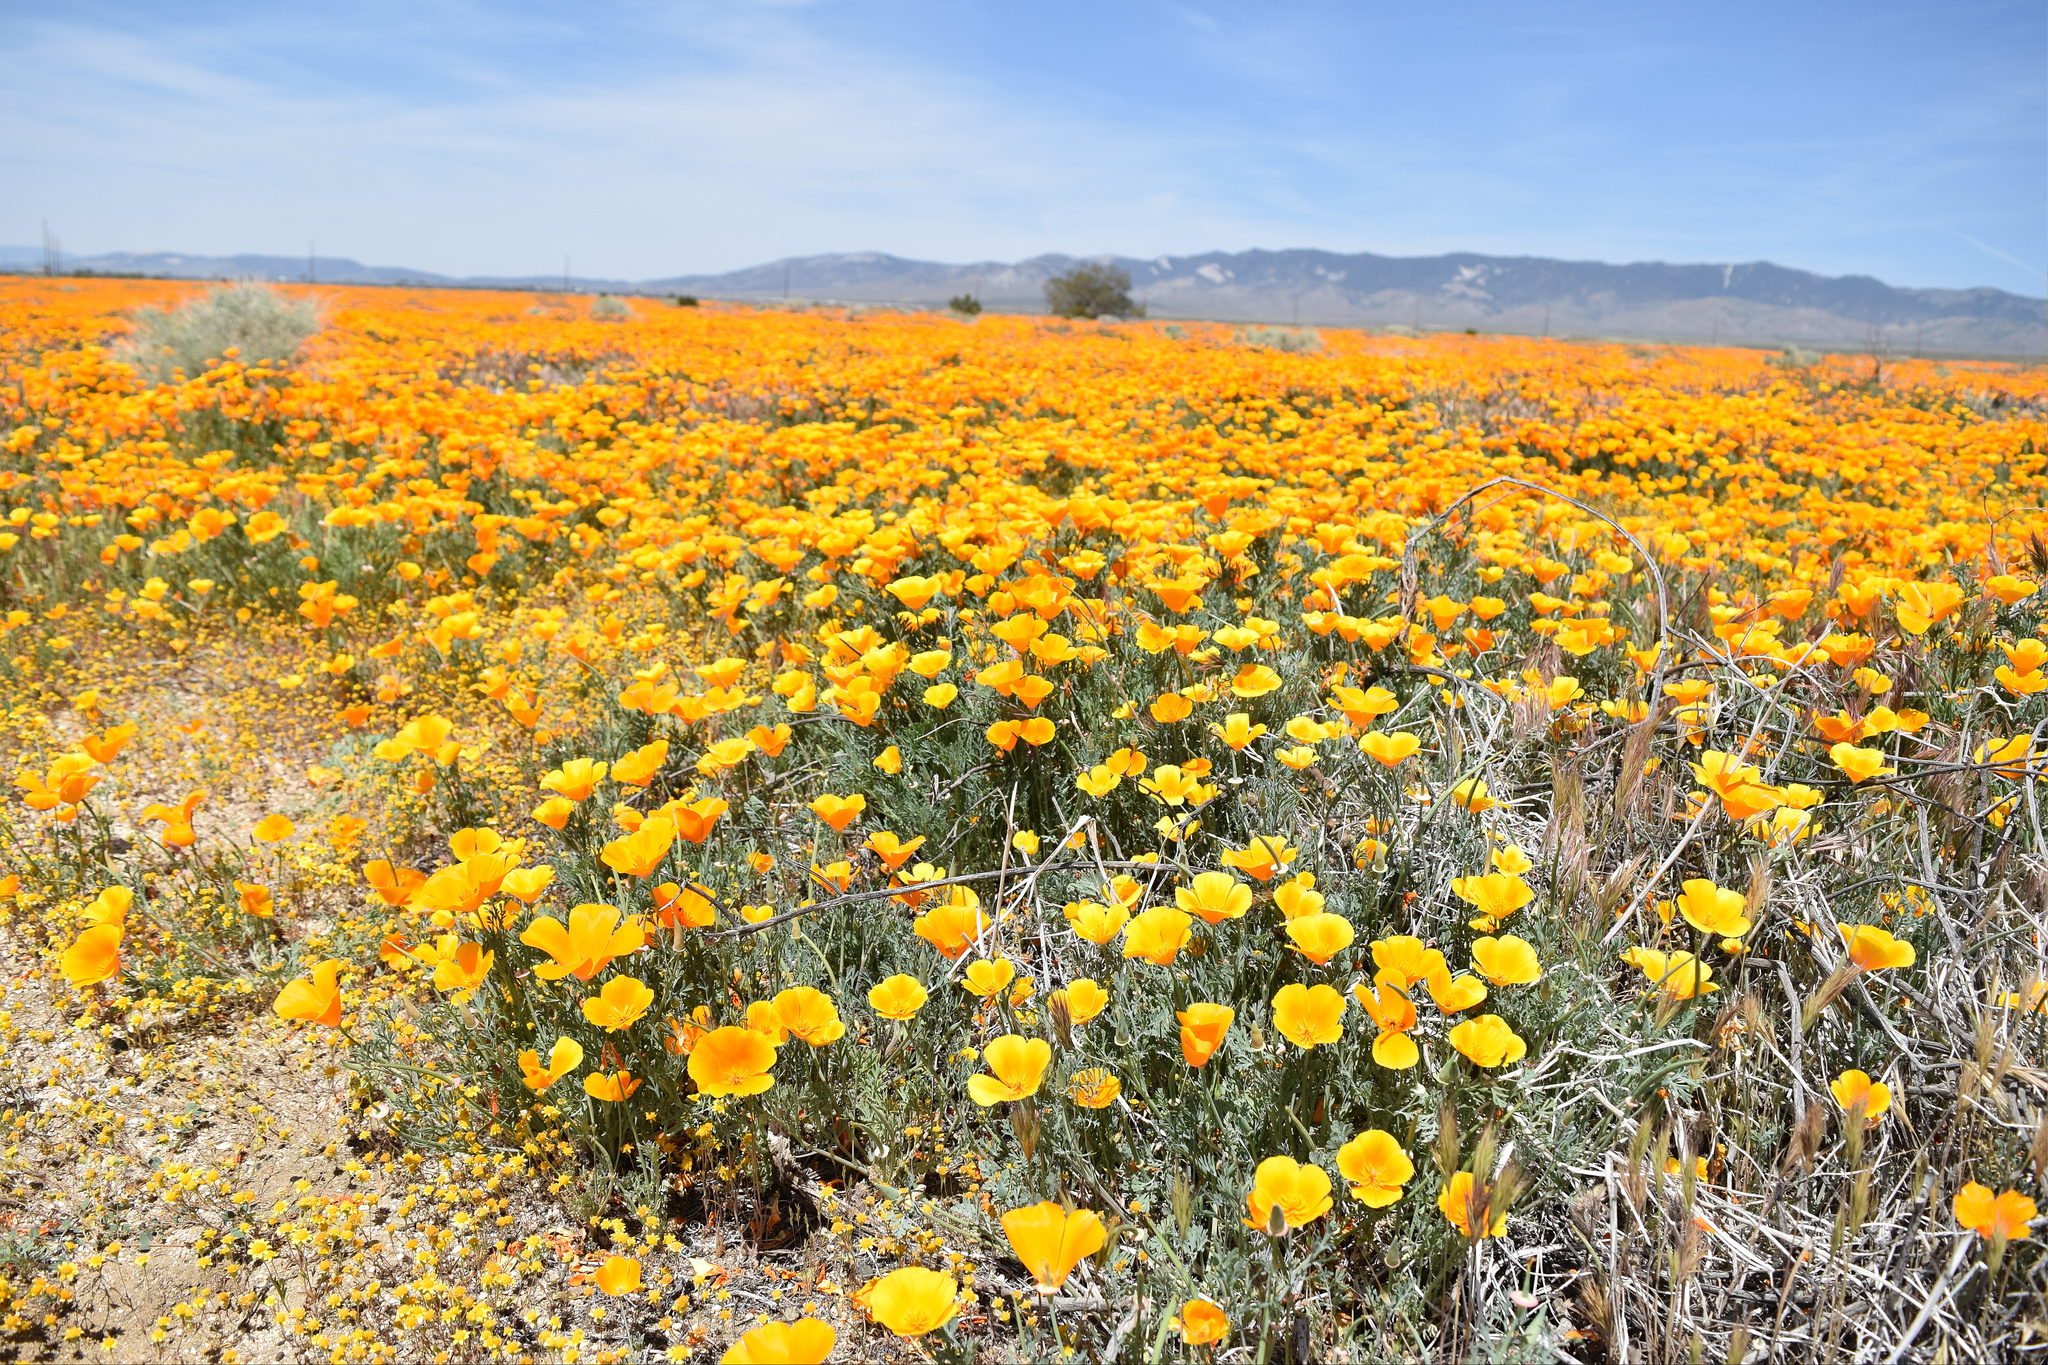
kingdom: Plantae
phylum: Tracheophyta
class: Magnoliopsida
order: Ranunculales
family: Papaveraceae
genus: Eschscholzia
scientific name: Eschscholzia californica
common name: California poppy
